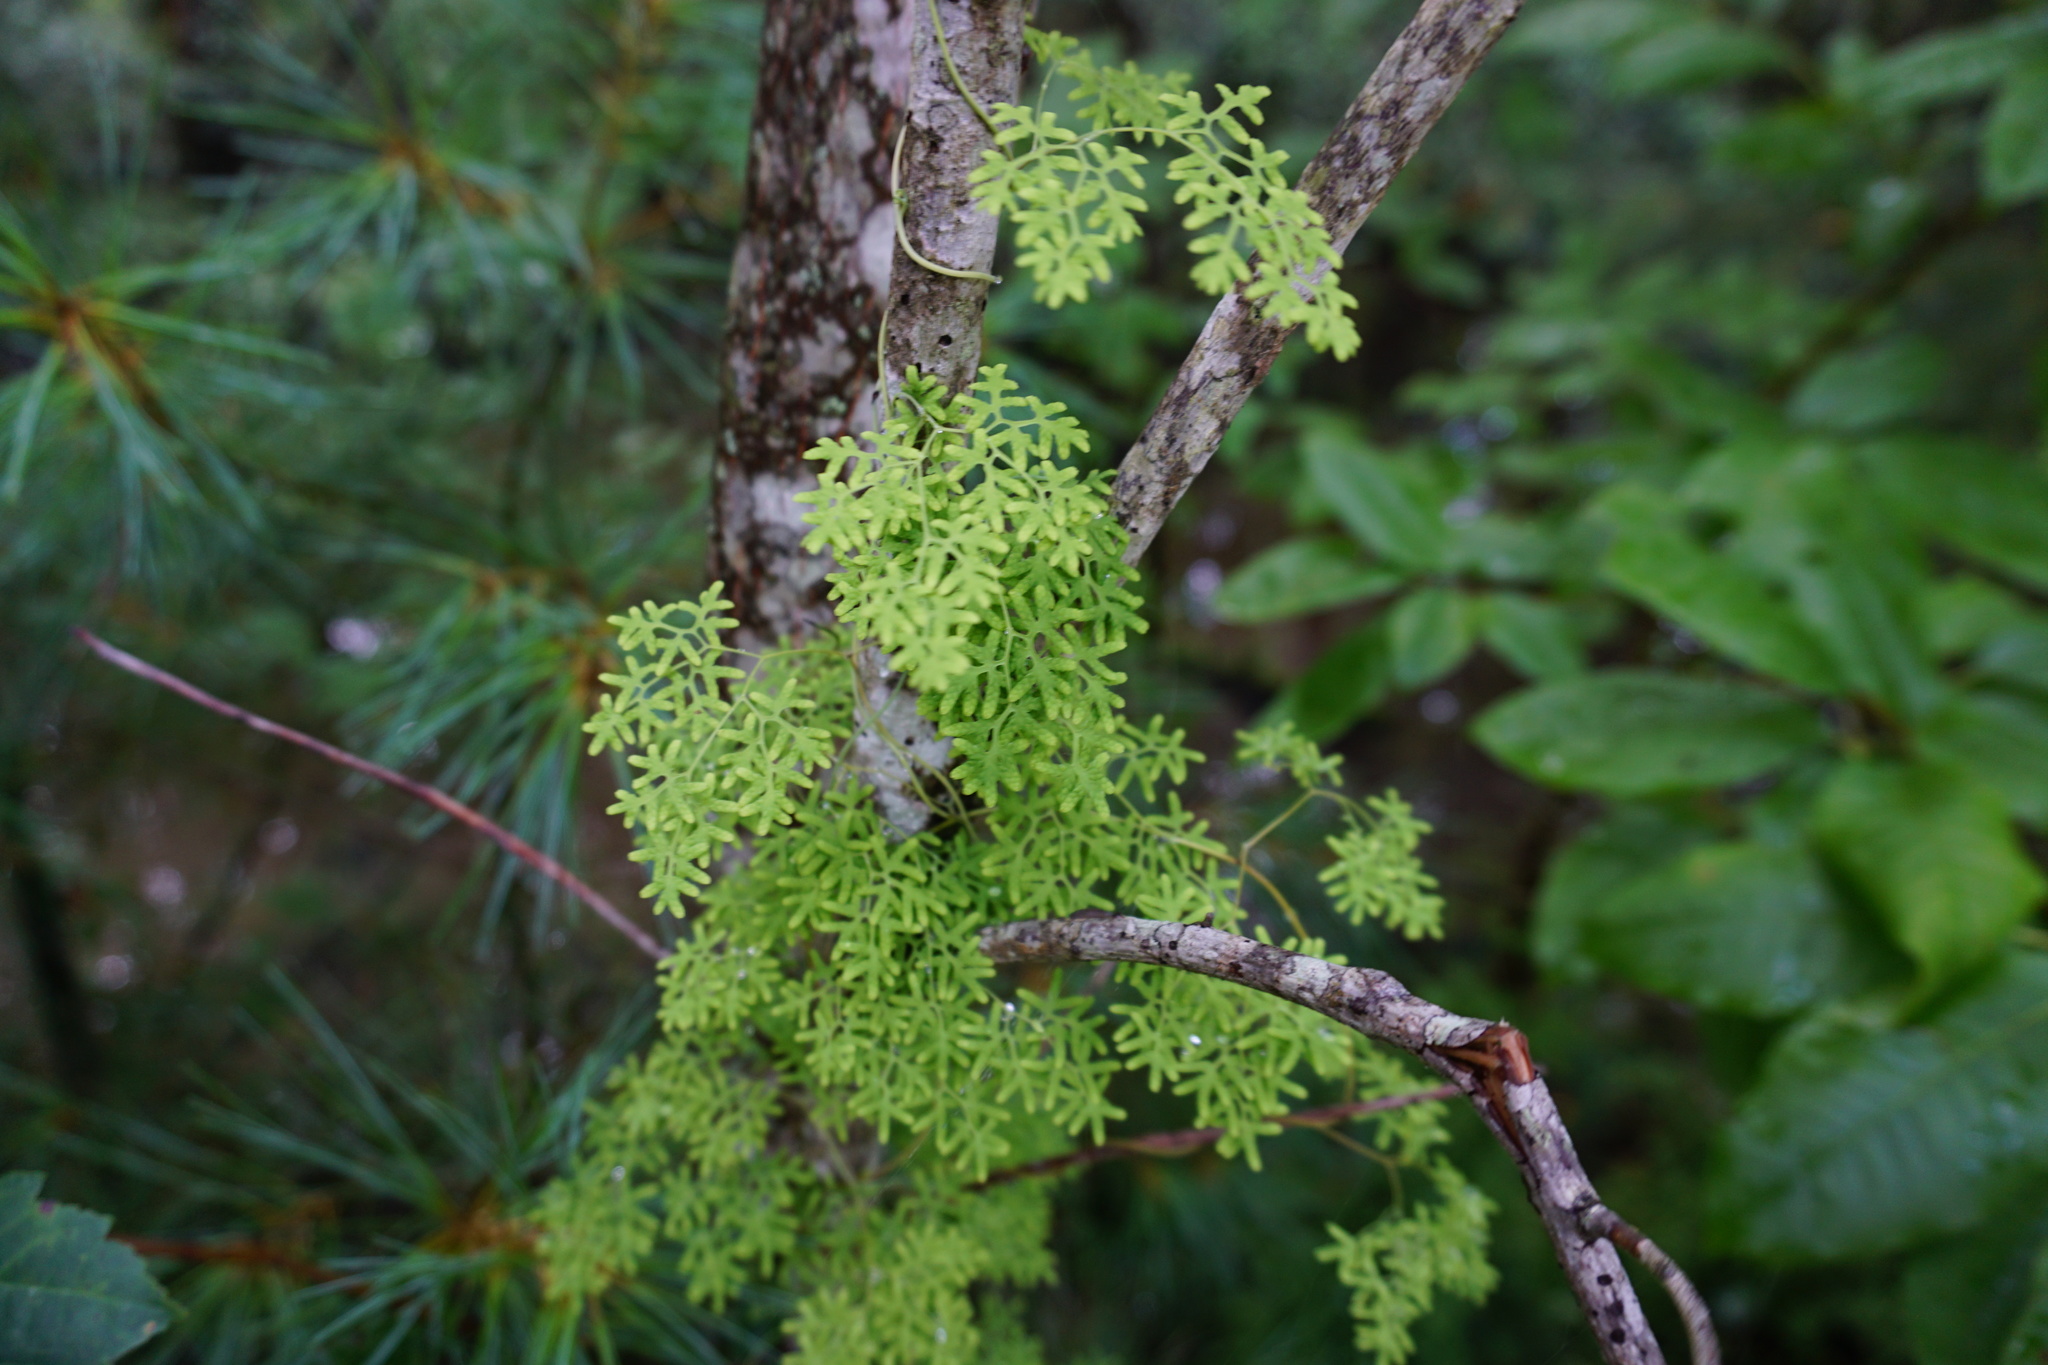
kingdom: Plantae
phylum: Tracheophyta
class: Polypodiopsida
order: Schizaeales
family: Lygodiaceae
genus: Lygodium
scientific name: Lygodium palmatum
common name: American climbing fern
